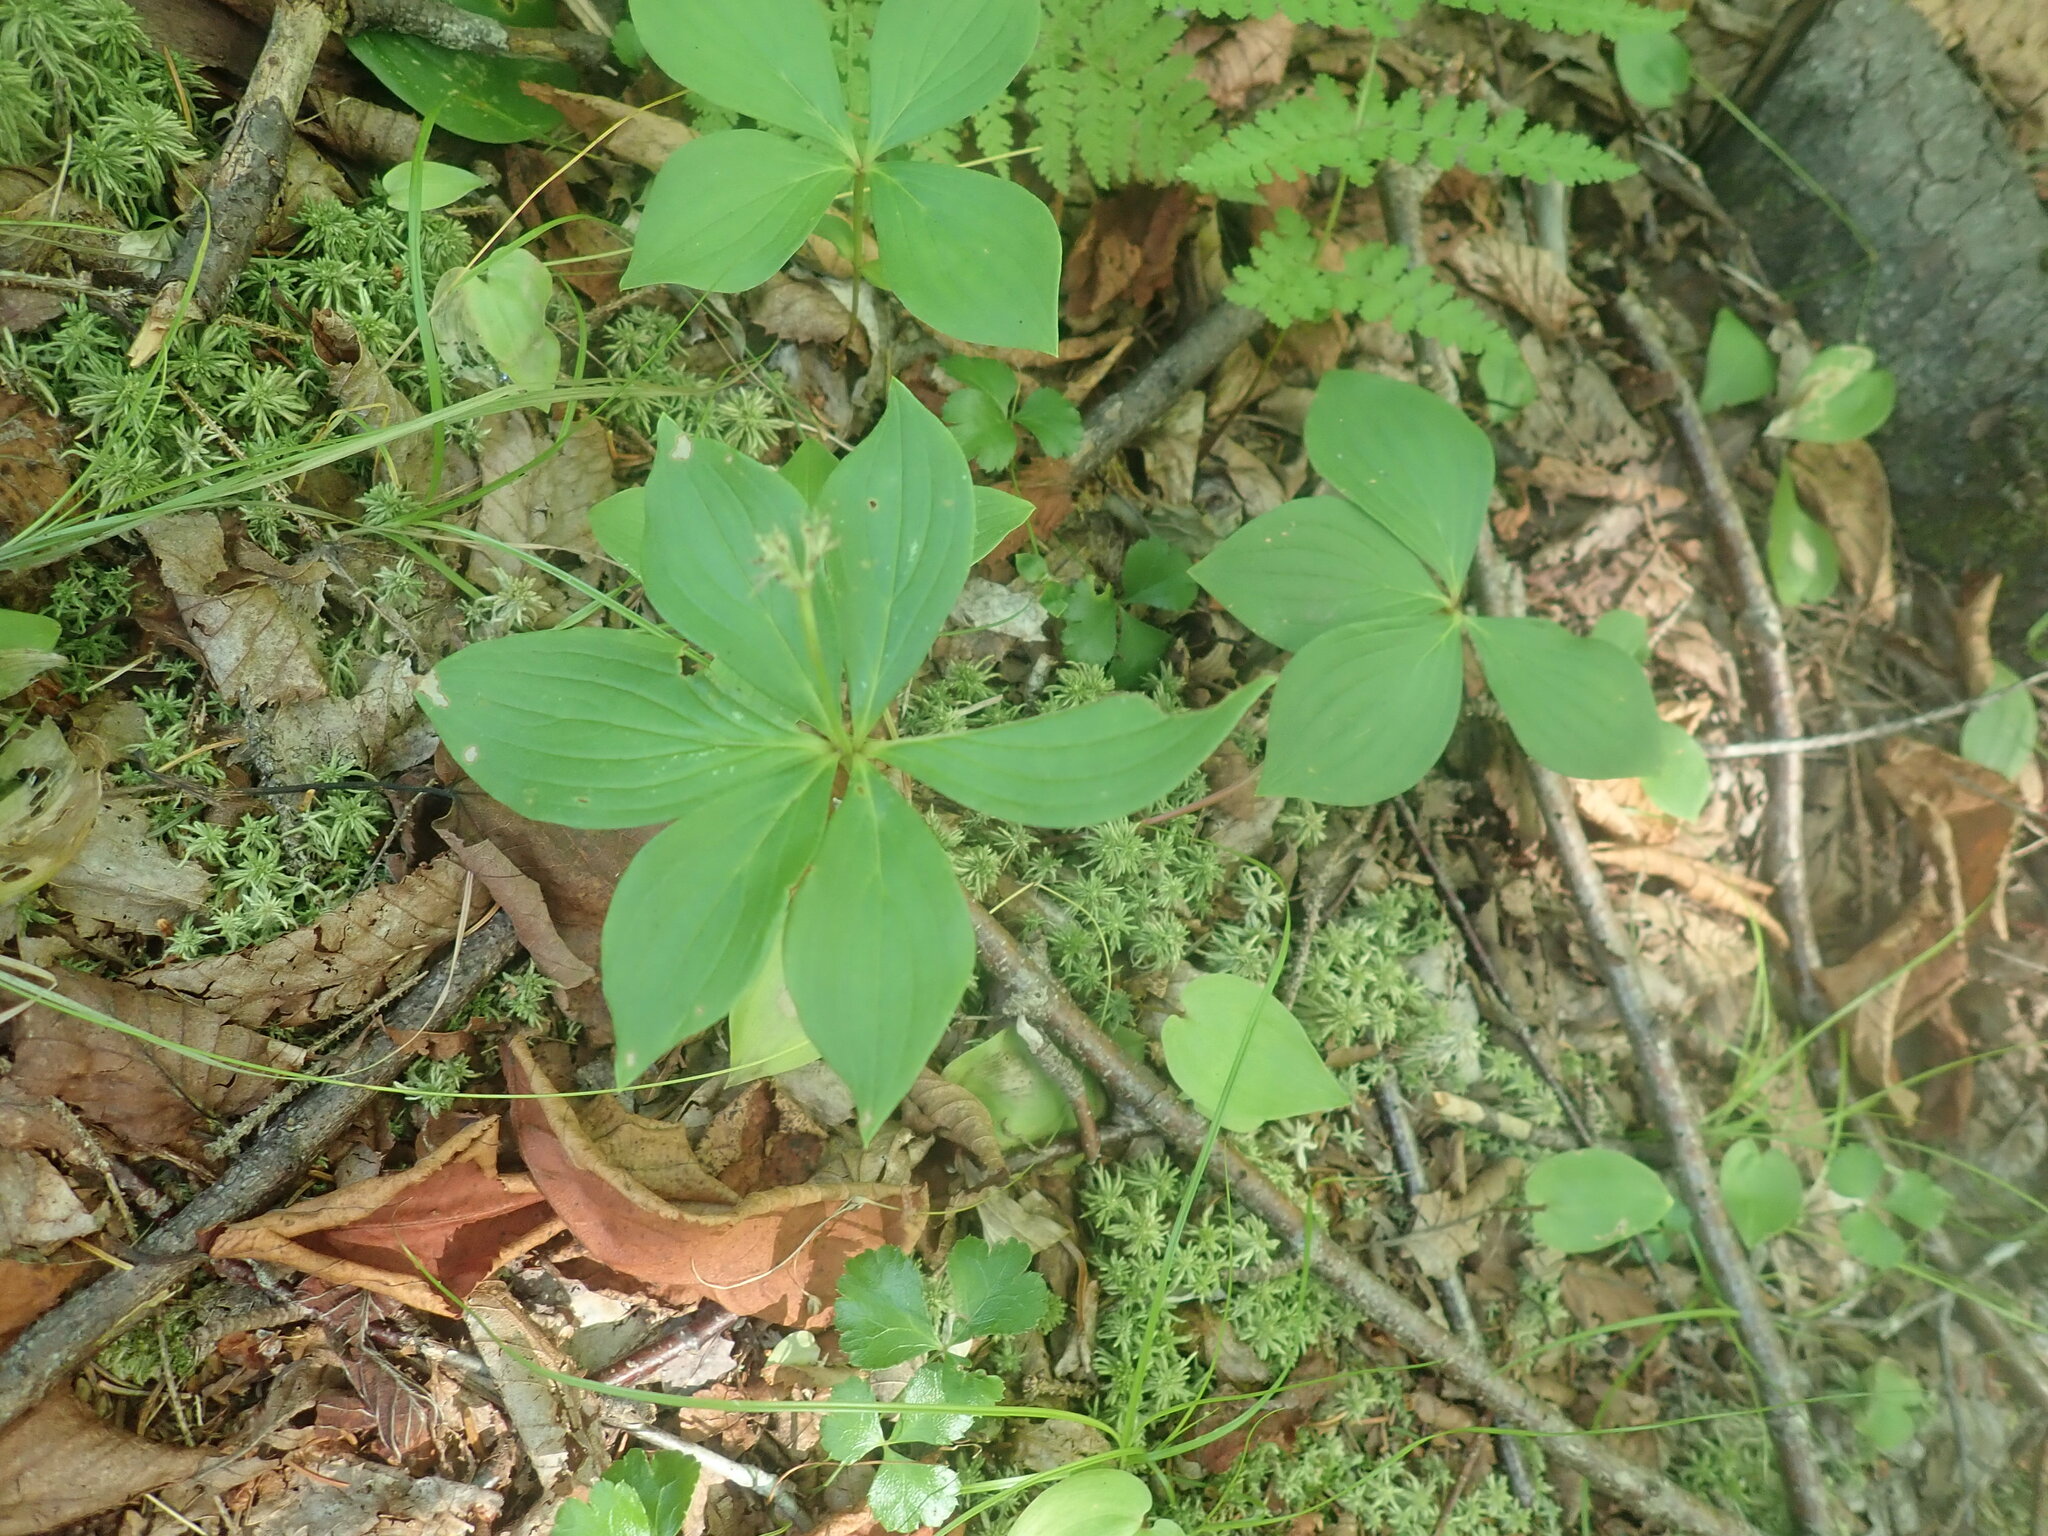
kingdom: Plantae
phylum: Tracheophyta
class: Magnoliopsida
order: Cornales
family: Cornaceae
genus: Cornus
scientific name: Cornus canadensis
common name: Creeping dogwood
